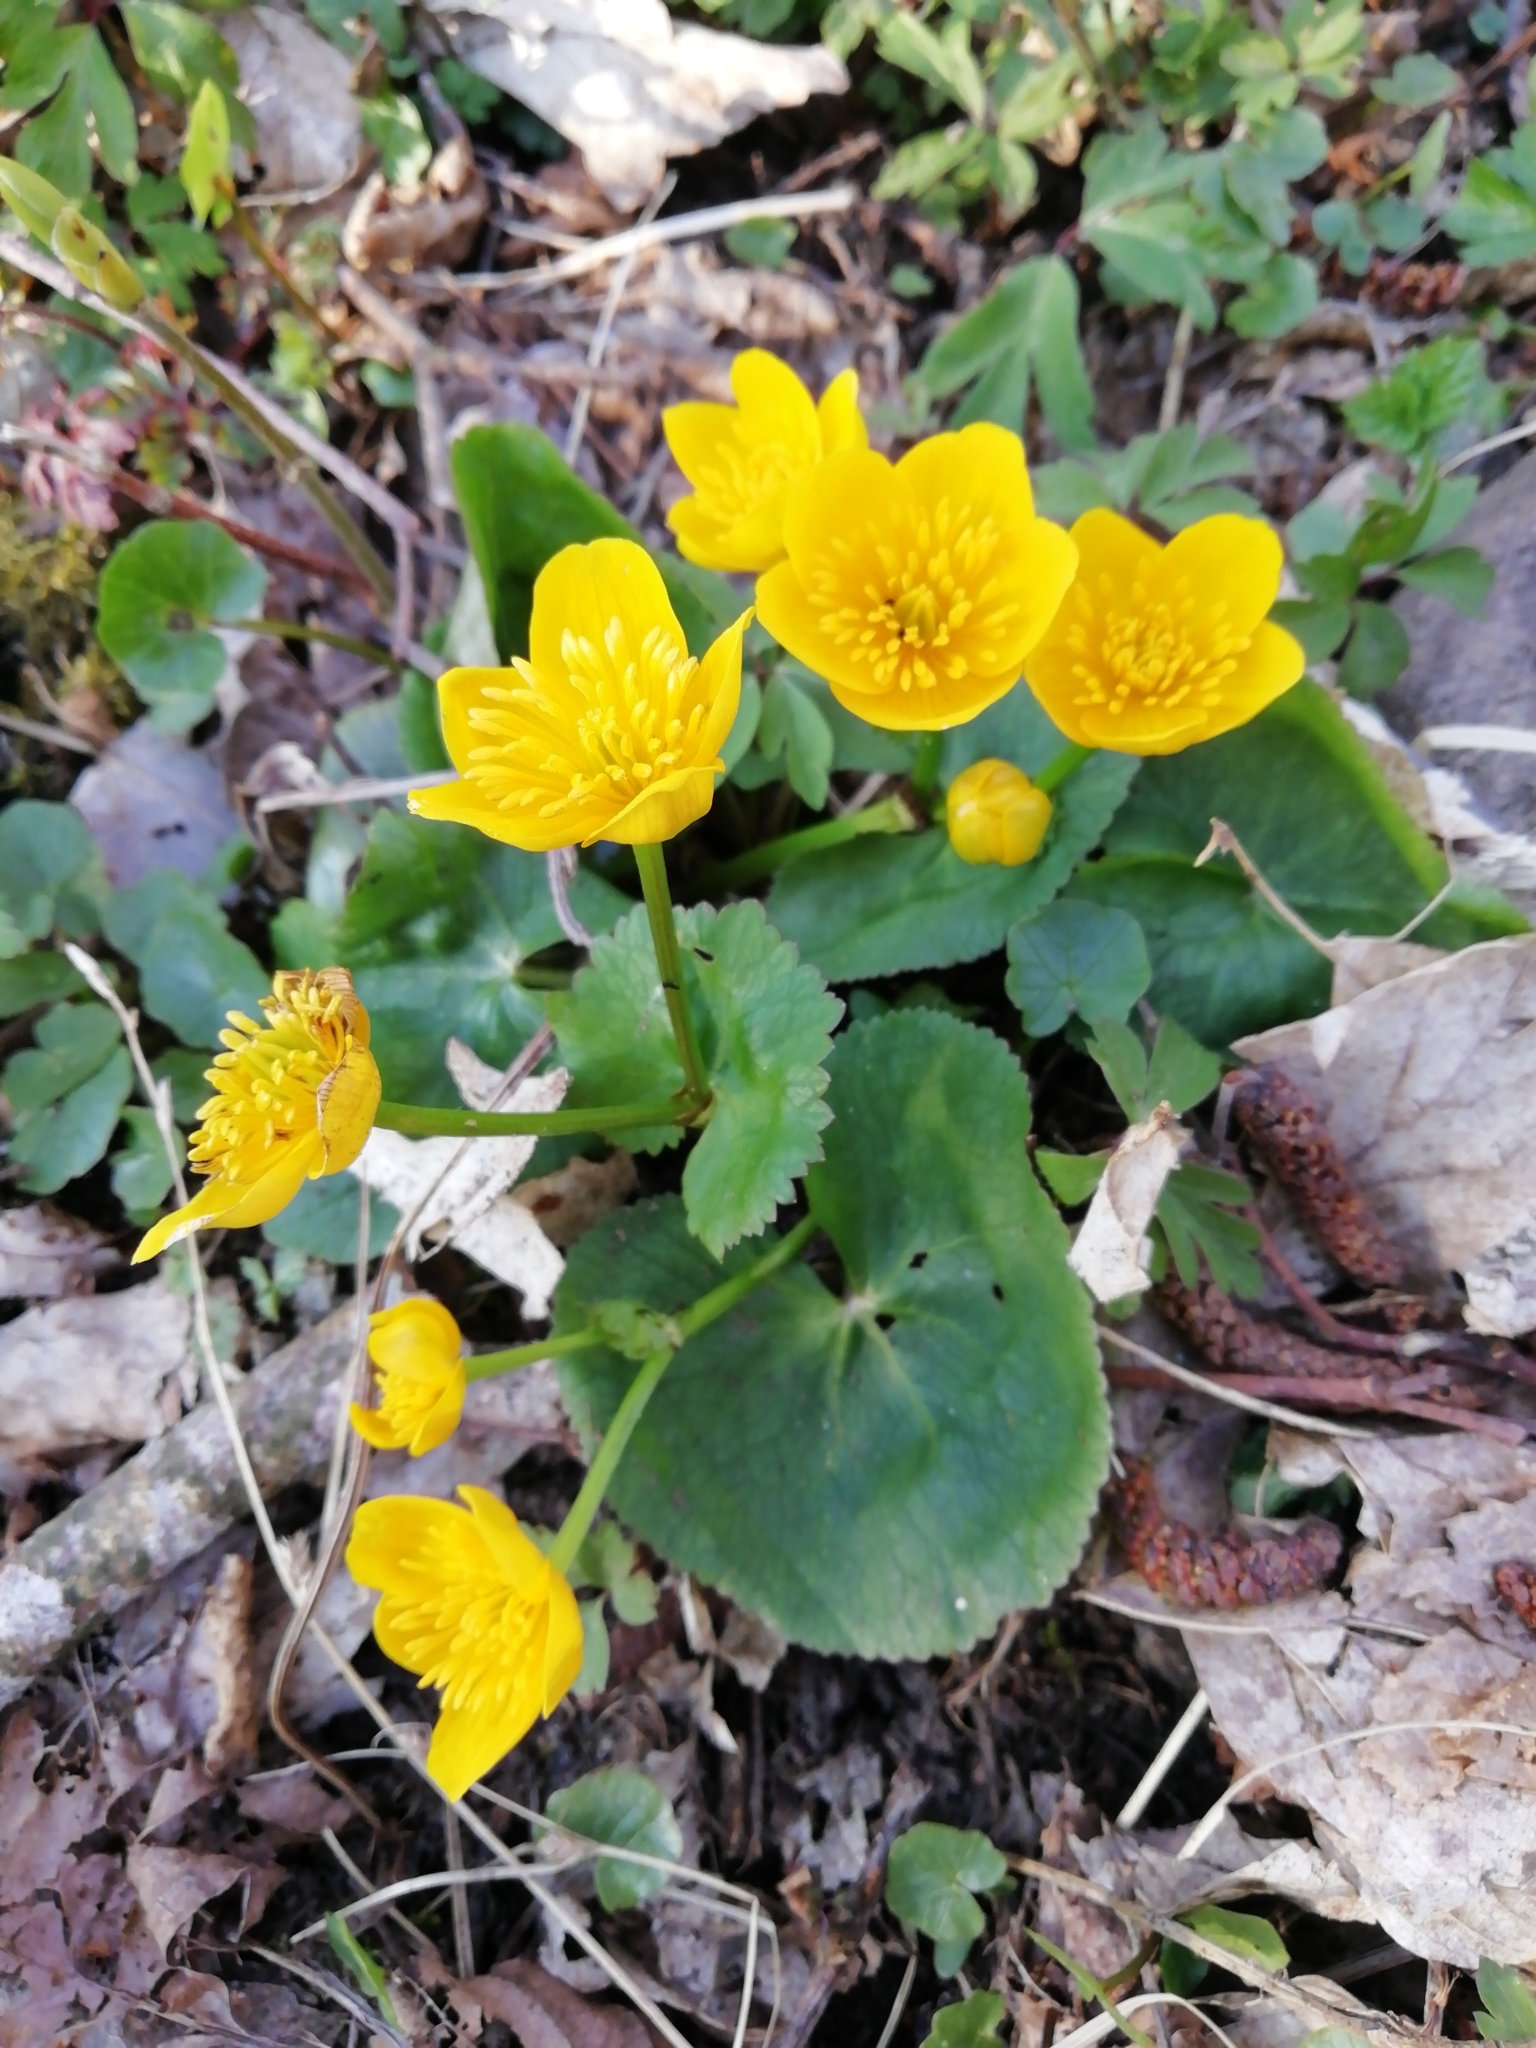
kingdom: Plantae
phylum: Tracheophyta
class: Magnoliopsida
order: Ranunculales
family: Ranunculaceae
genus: Caltha
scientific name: Caltha palustris
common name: Marsh marigold
